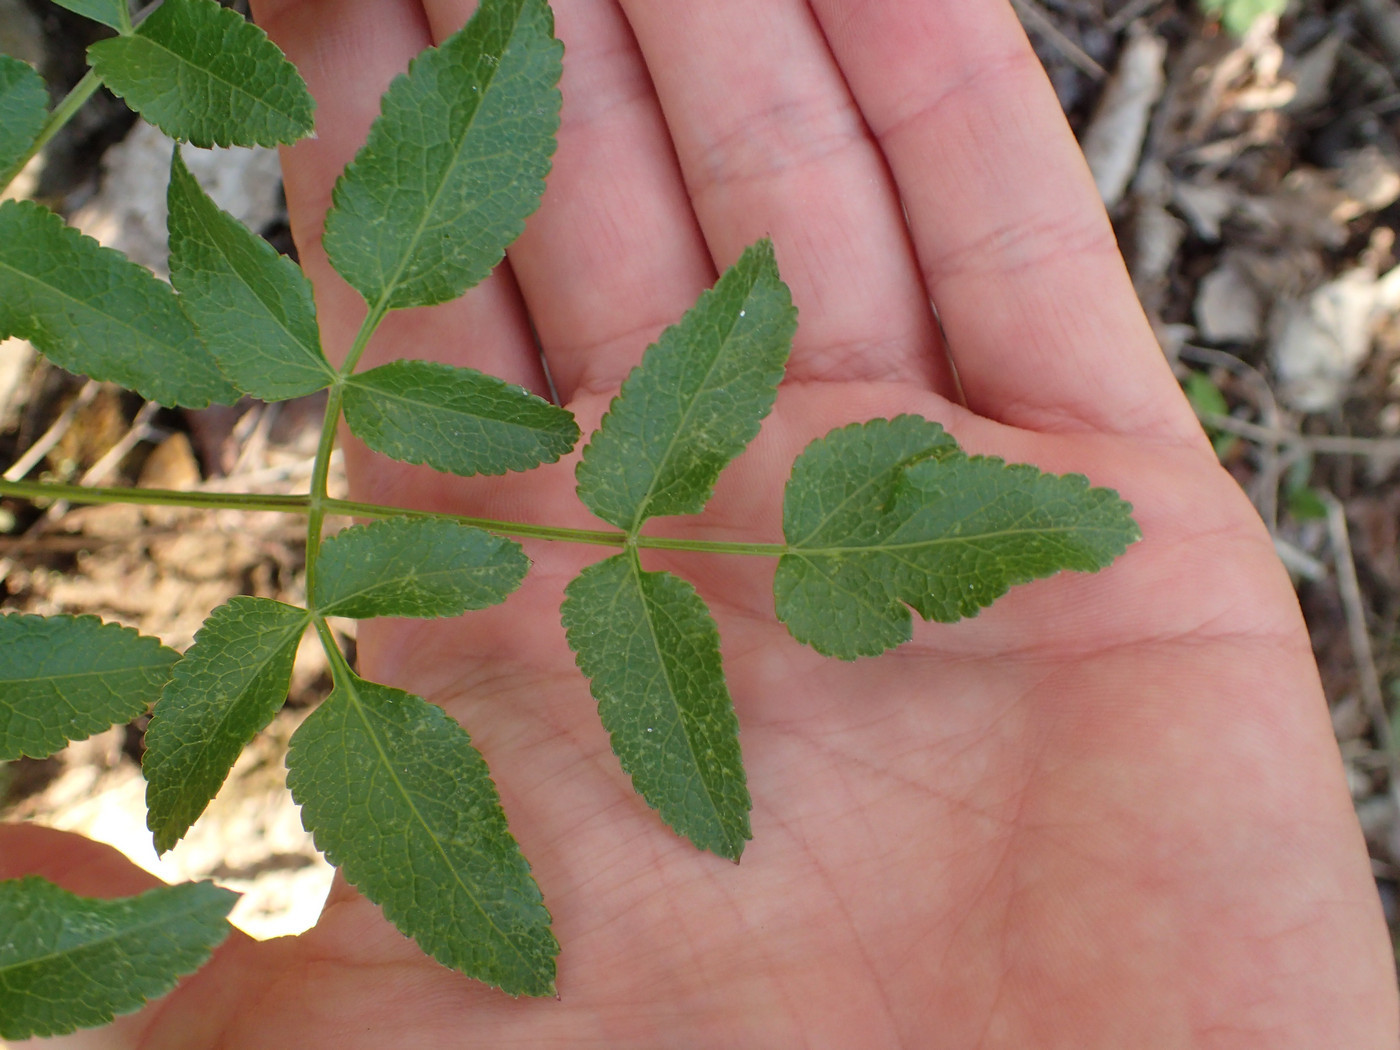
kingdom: Plantae
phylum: Tracheophyta
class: Magnoliopsida
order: Apiales
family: Apiaceae
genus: Angelica
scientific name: Angelica venenosa
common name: Hairy angelica
